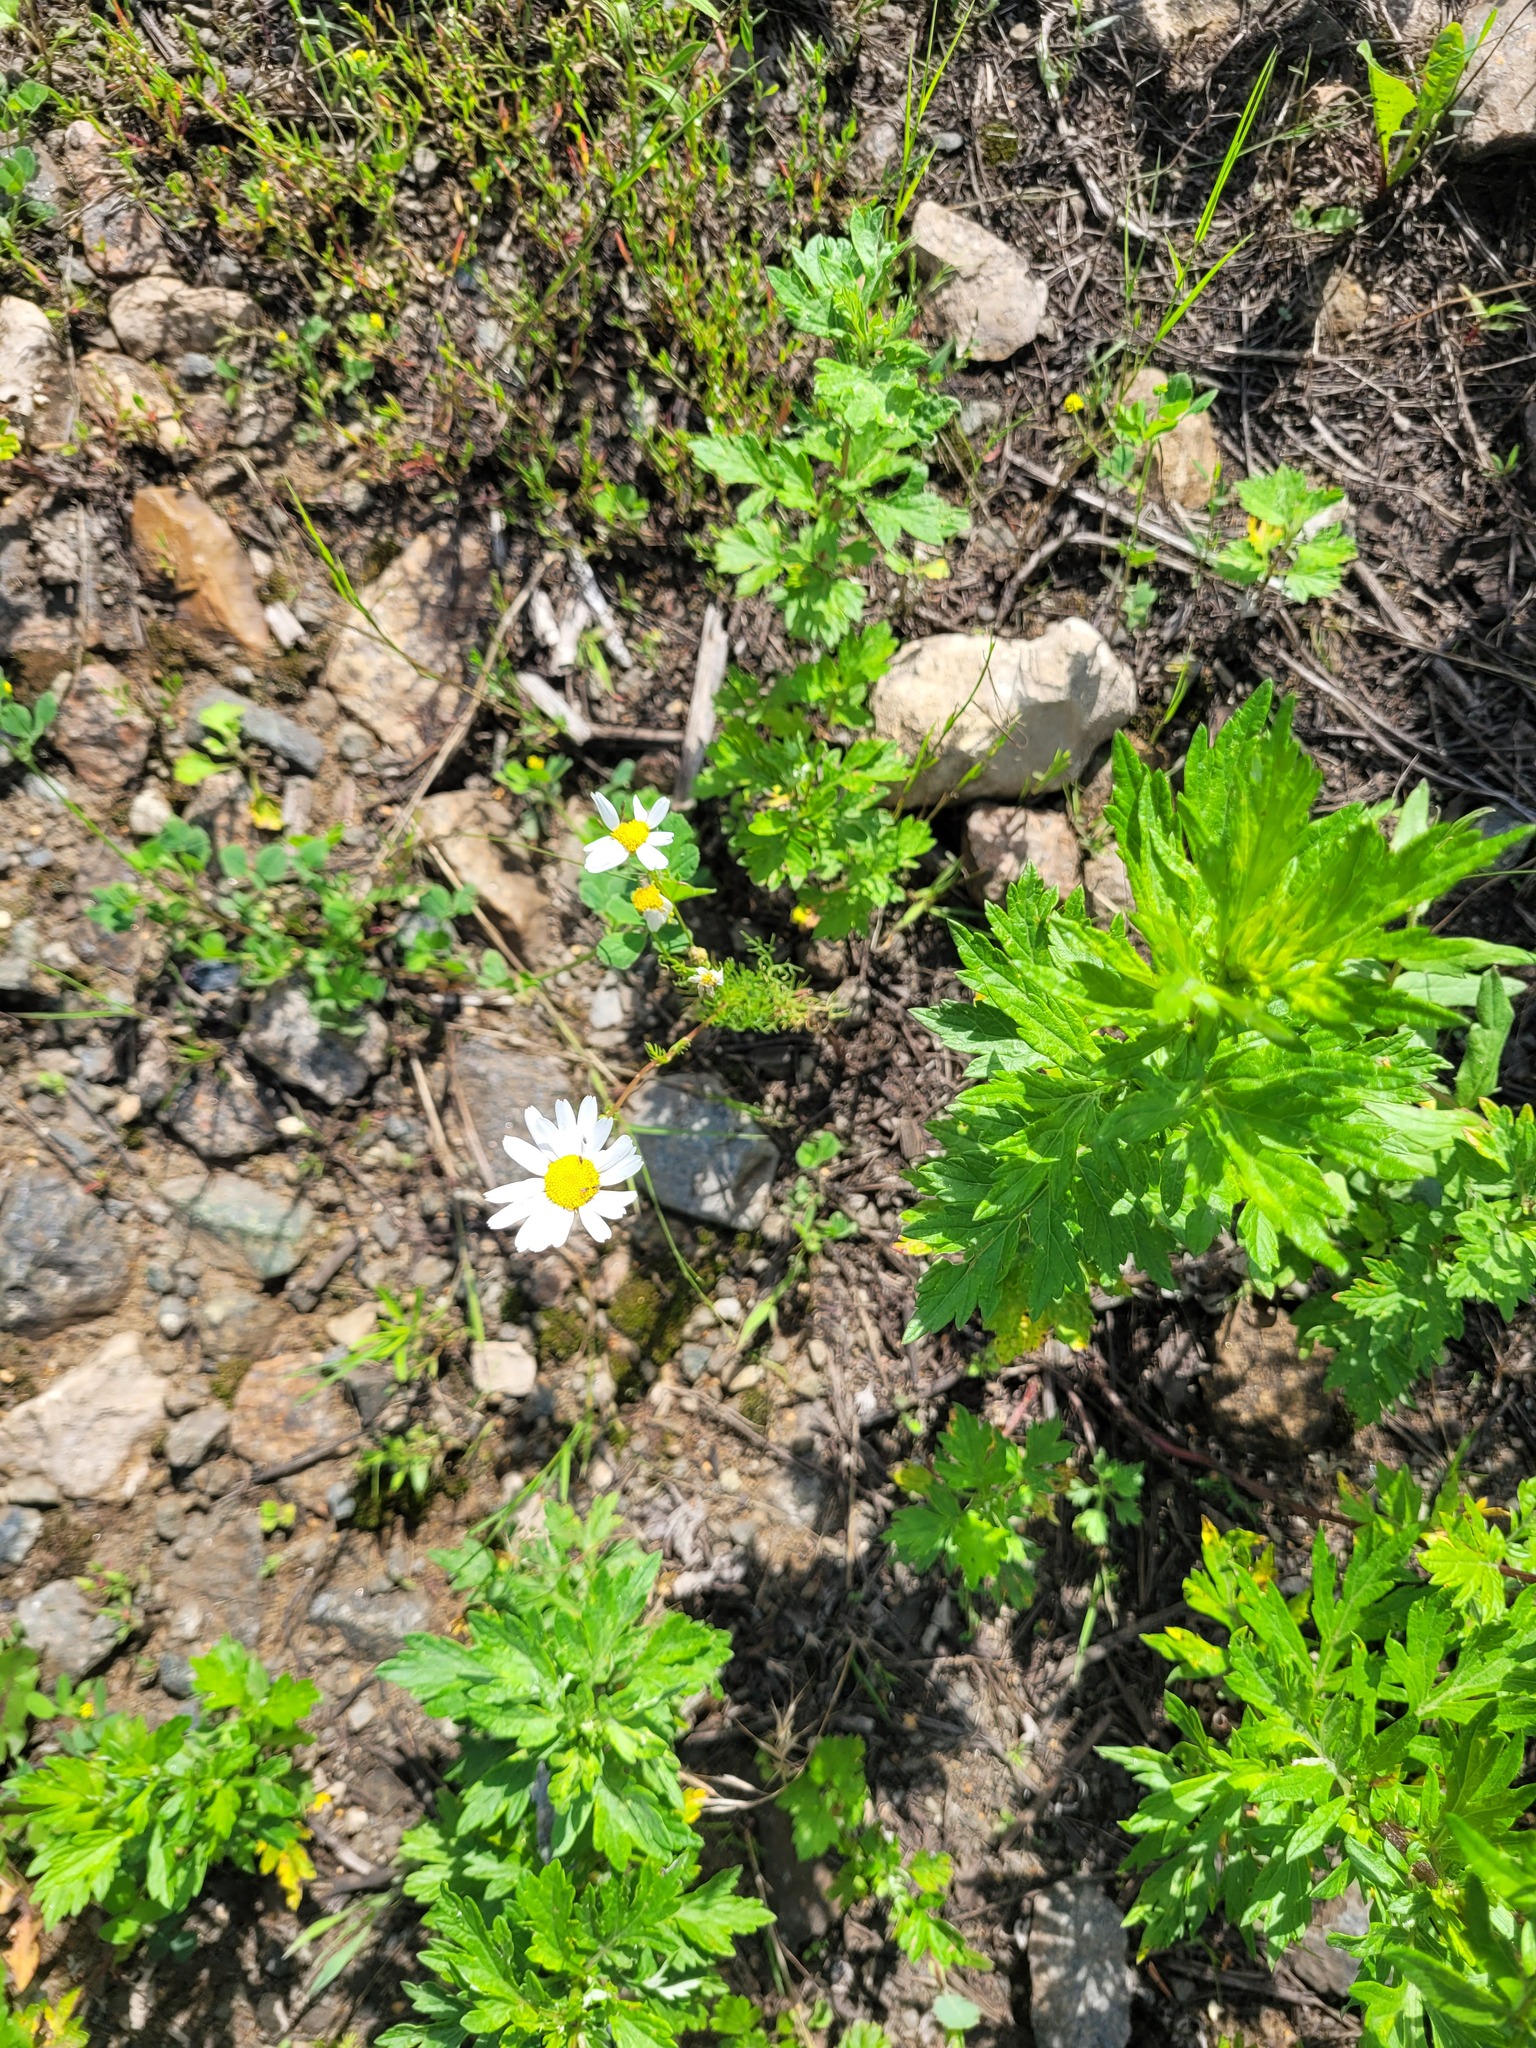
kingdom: Plantae
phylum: Tracheophyta
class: Magnoliopsida
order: Asterales
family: Asteraceae
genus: Tripleurospermum
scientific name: Tripleurospermum inodorum
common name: Scentless mayweed
